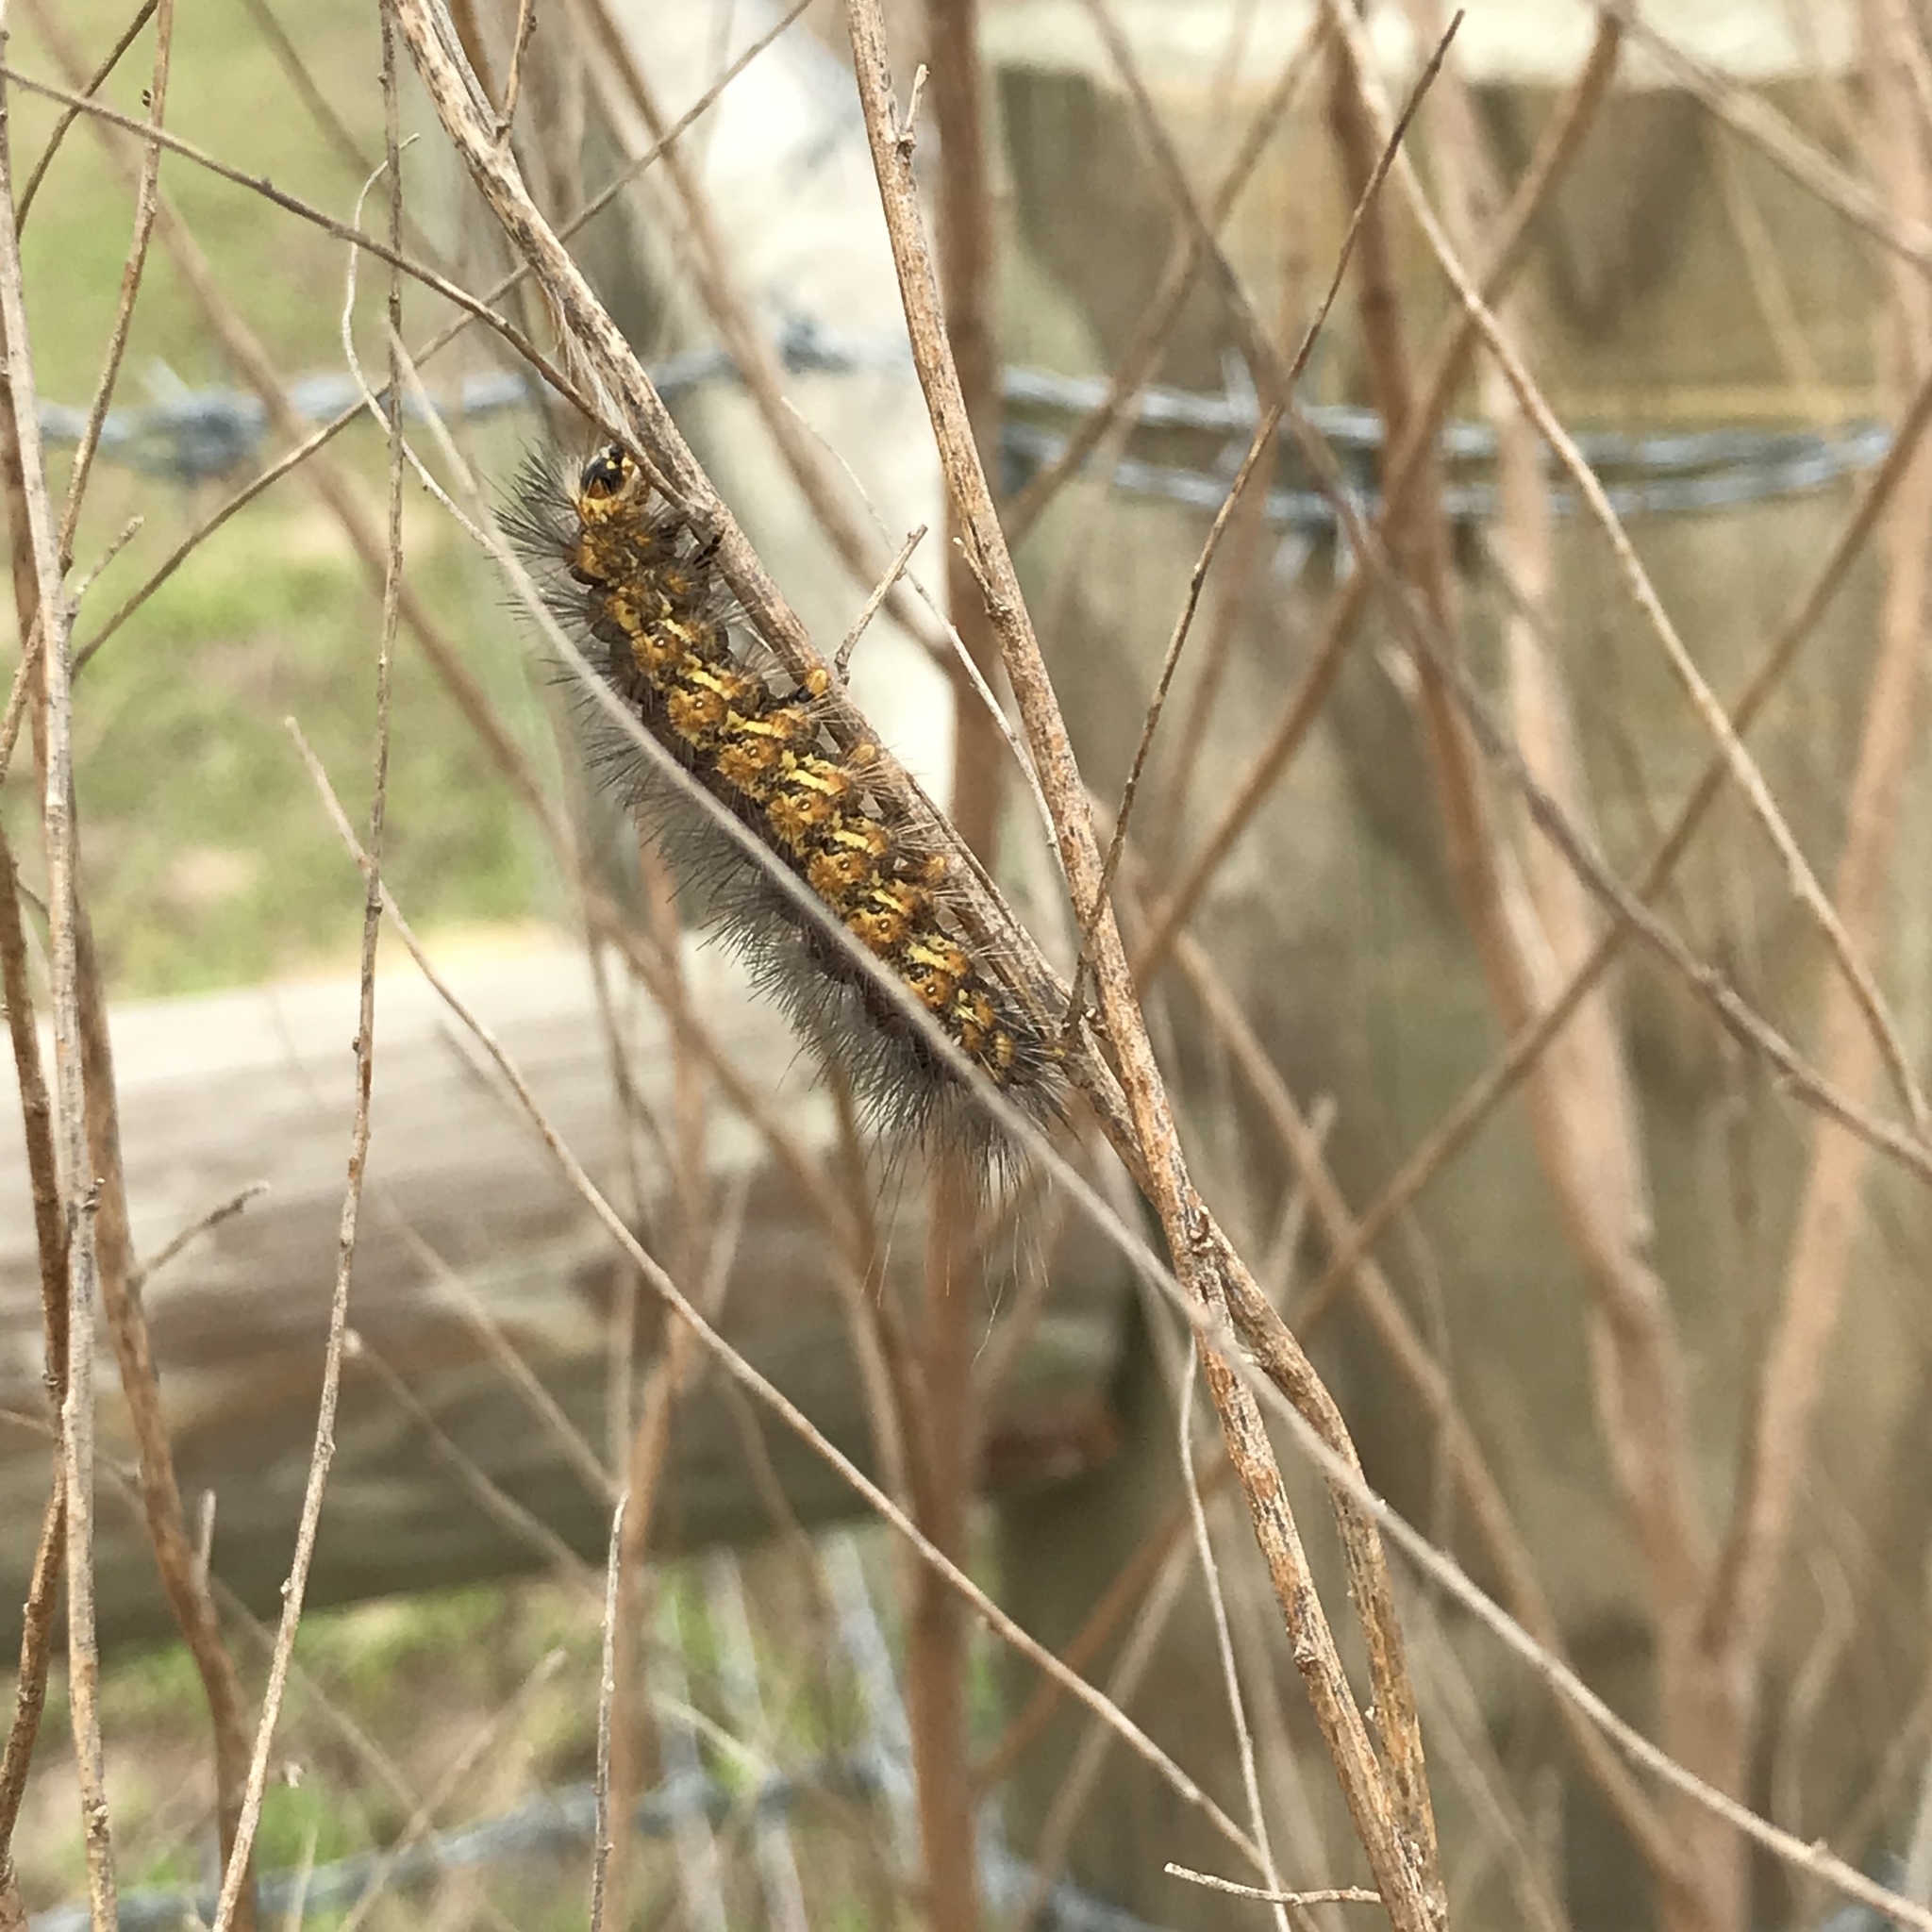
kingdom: Animalia
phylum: Arthropoda
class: Insecta
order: Lepidoptera
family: Erebidae
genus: Estigmene
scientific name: Estigmene acrea
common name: Salt marsh moth
